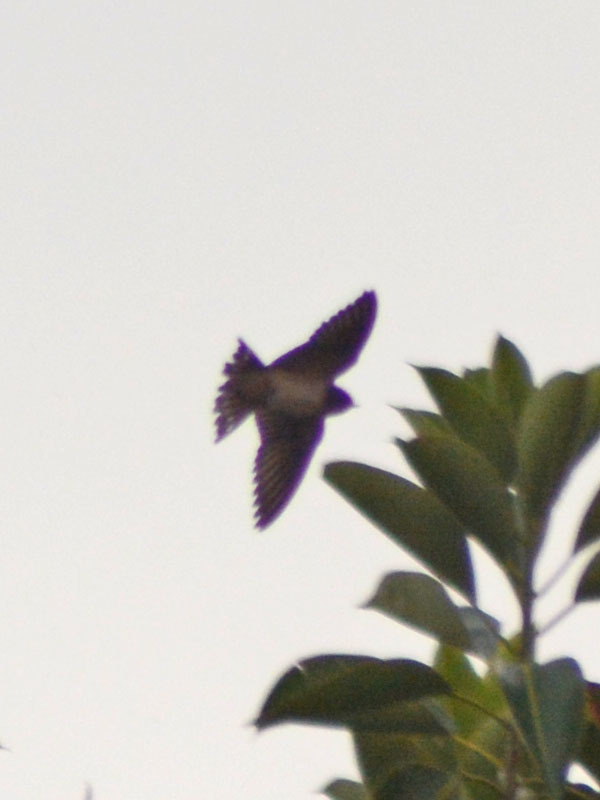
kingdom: Animalia
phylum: Chordata
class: Aves
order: Passeriformes
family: Hirundinidae
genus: Hirundo
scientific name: Hirundo rustica
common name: Barn swallow
